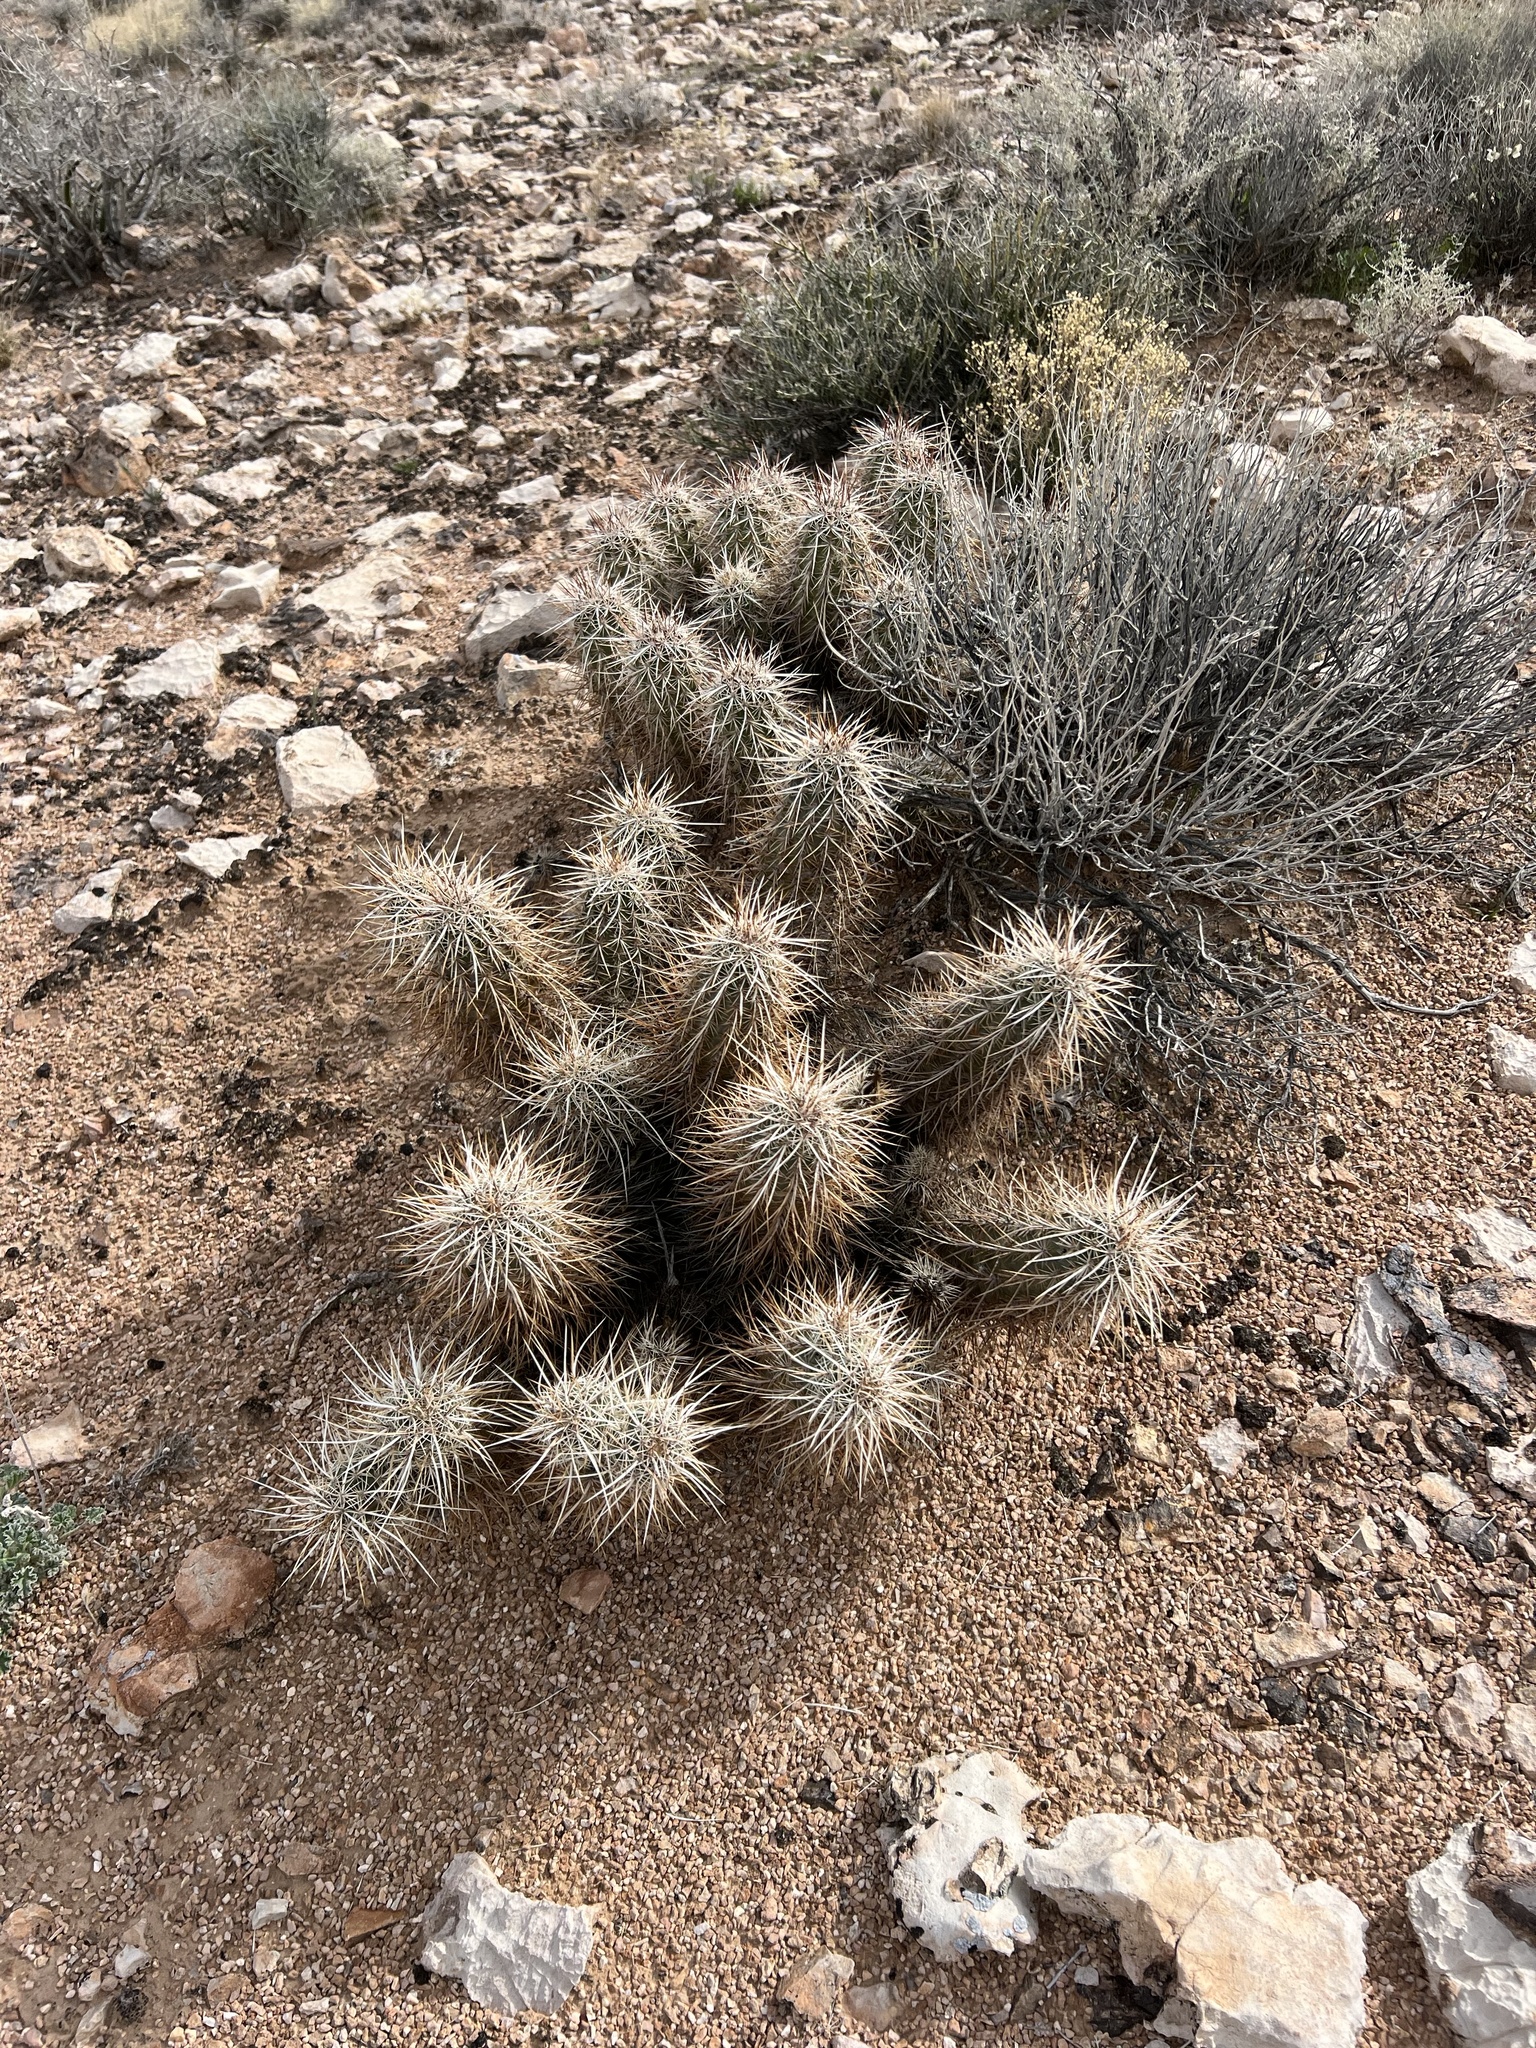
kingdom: Plantae
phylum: Tracheophyta
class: Magnoliopsida
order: Caryophyllales
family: Cactaceae
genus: Echinocereus
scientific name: Echinocereus engelmannii
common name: Engelmann's hedgehog cactus
